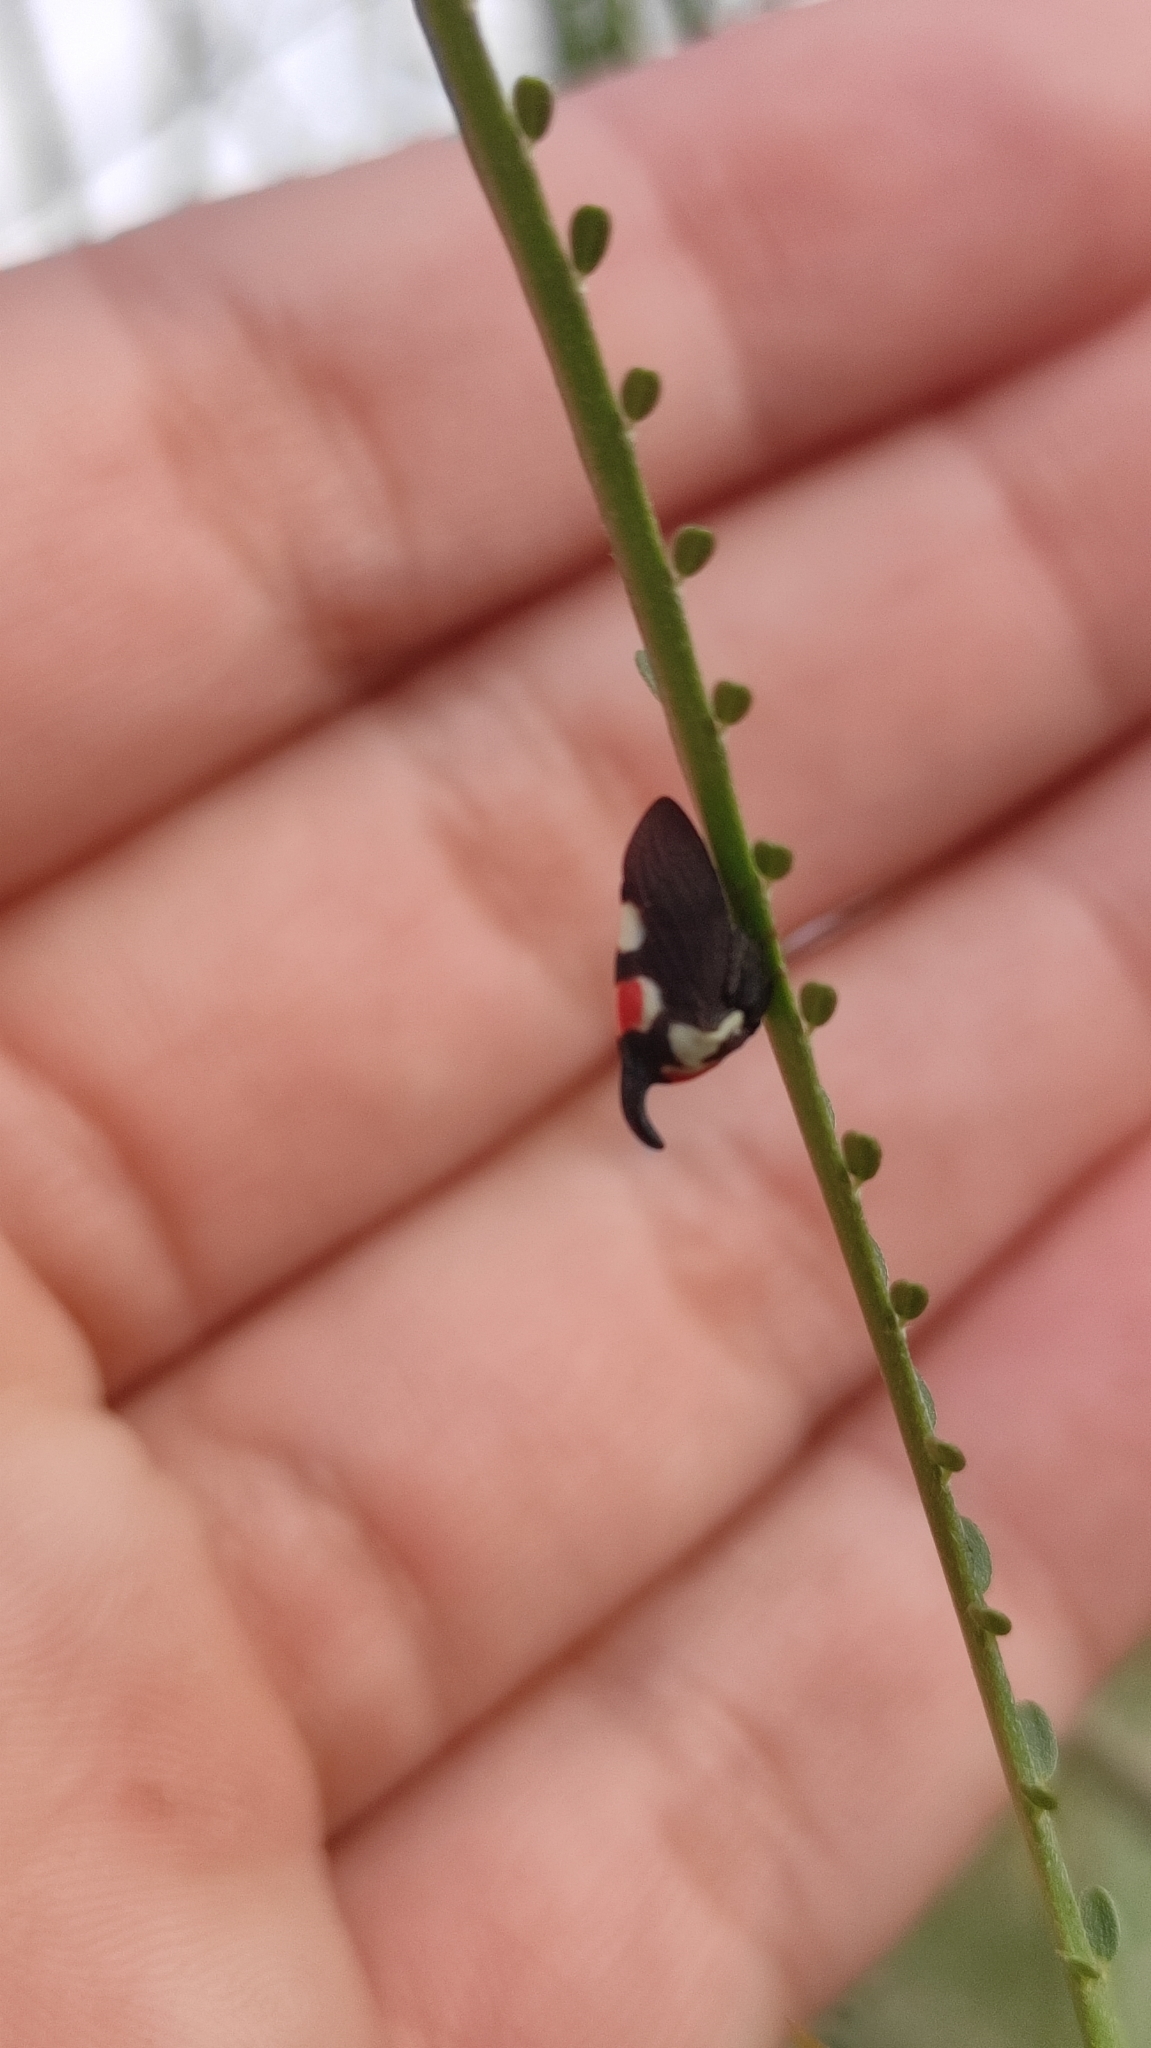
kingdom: Animalia
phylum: Arthropoda
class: Insecta
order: Hemiptera
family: Membracidae
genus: Enchophyllum
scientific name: Enchophyllum quinquemaculata
